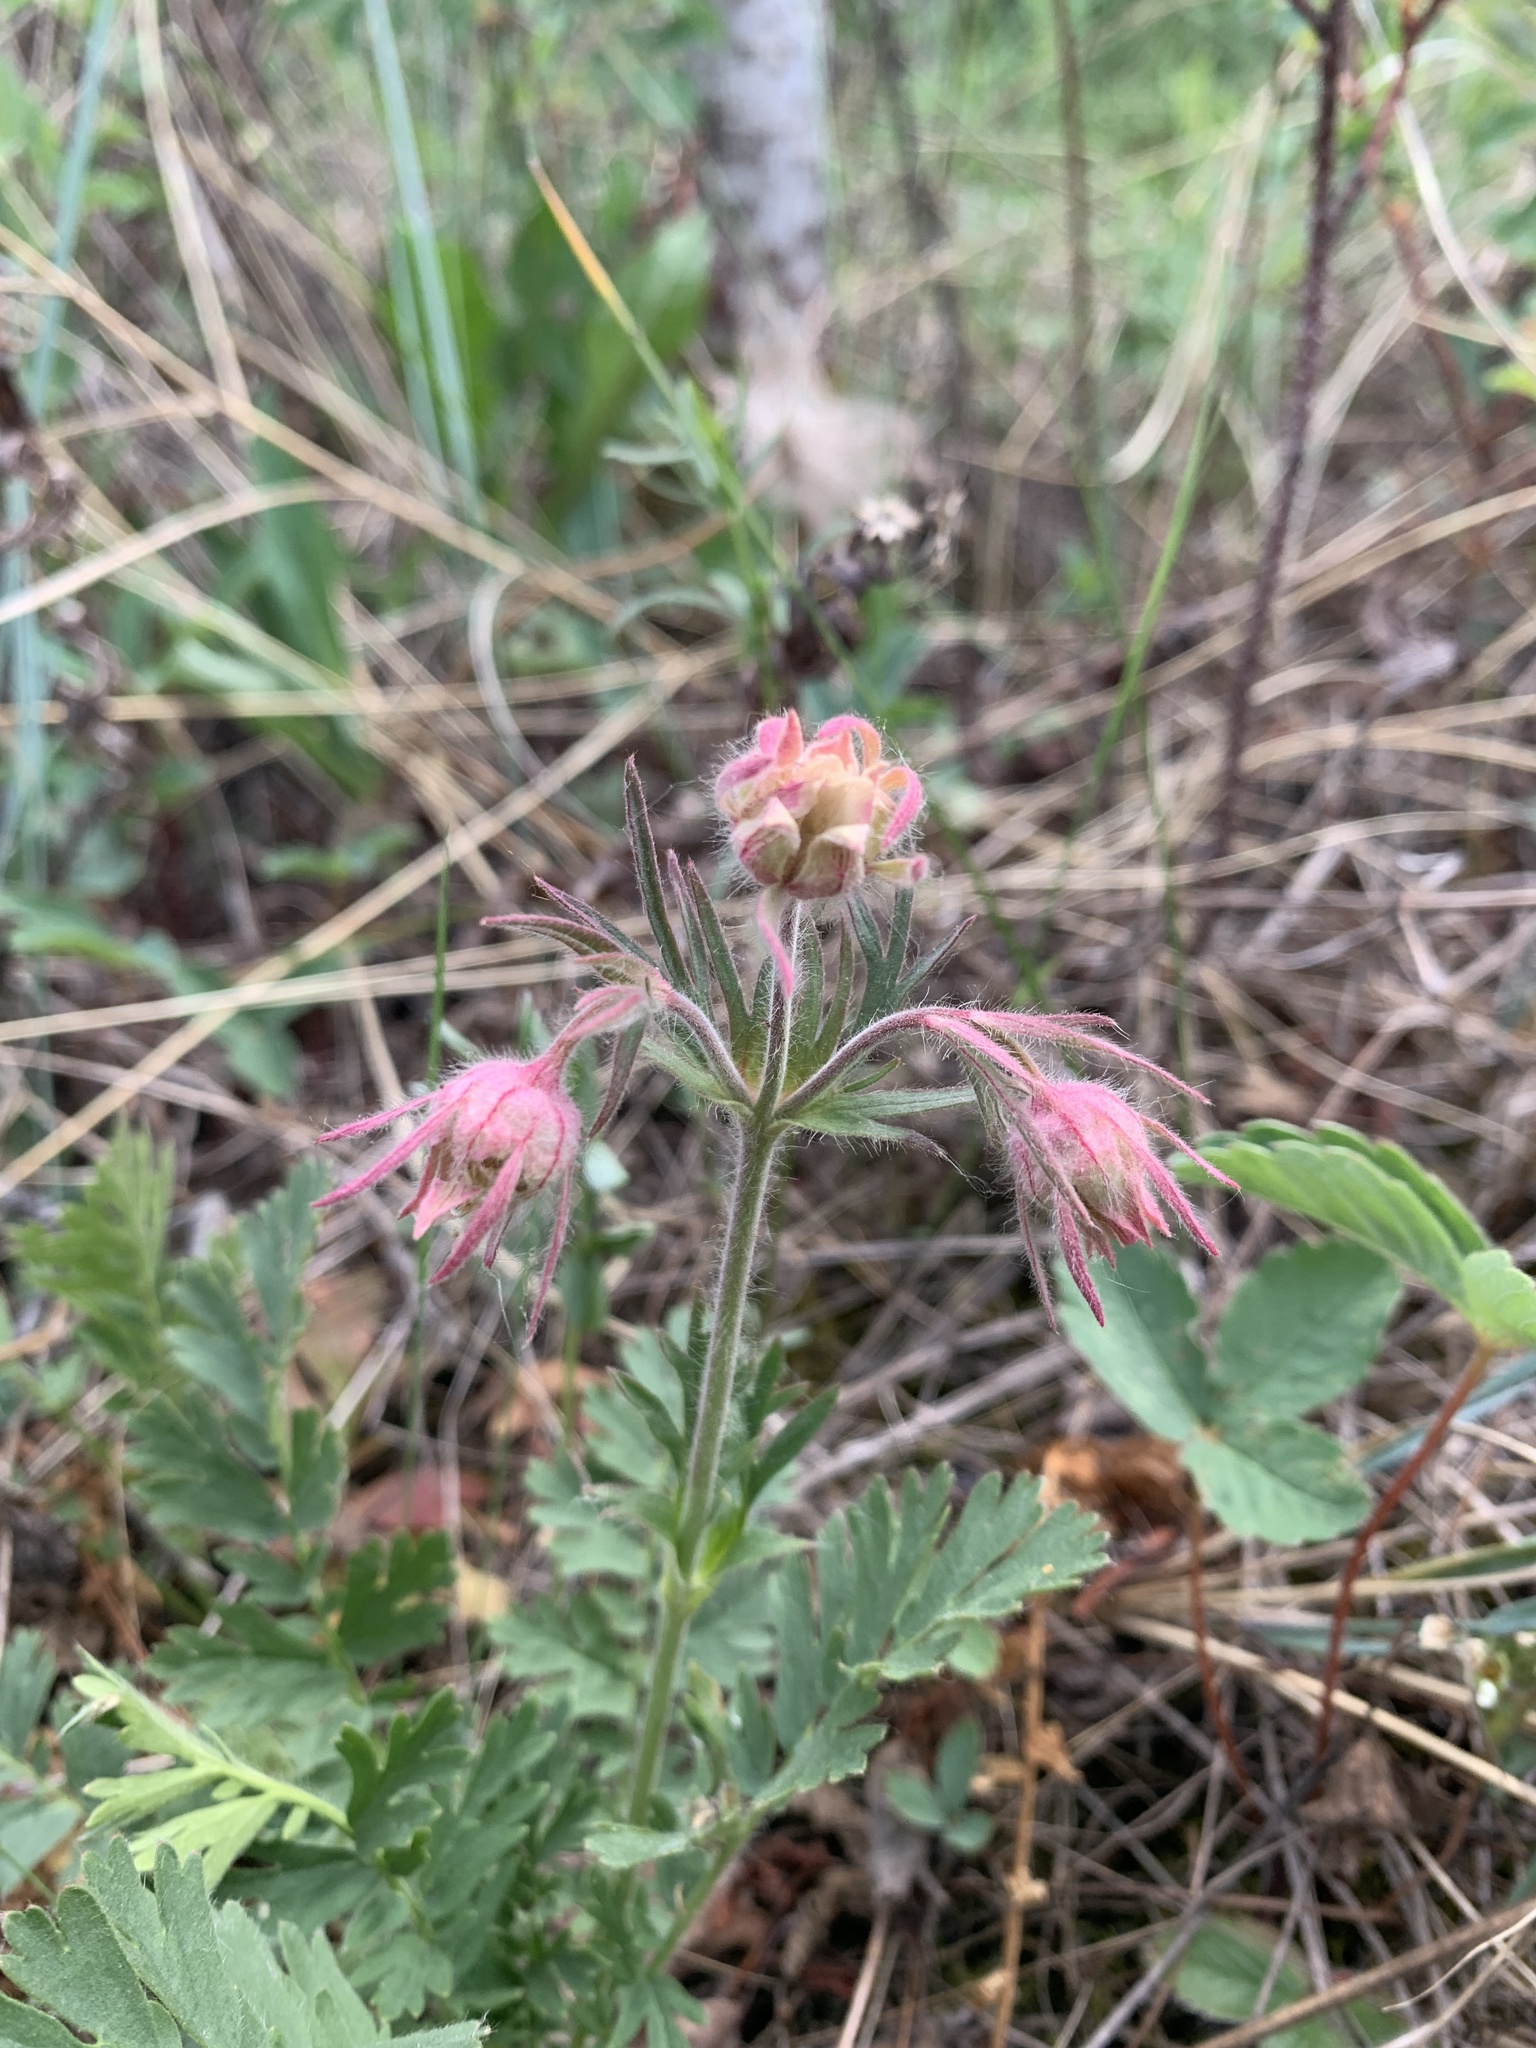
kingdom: Plantae
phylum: Tracheophyta
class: Magnoliopsida
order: Rosales
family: Rosaceae
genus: Geum
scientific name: Geum triflorum
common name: Old man's whiskers
